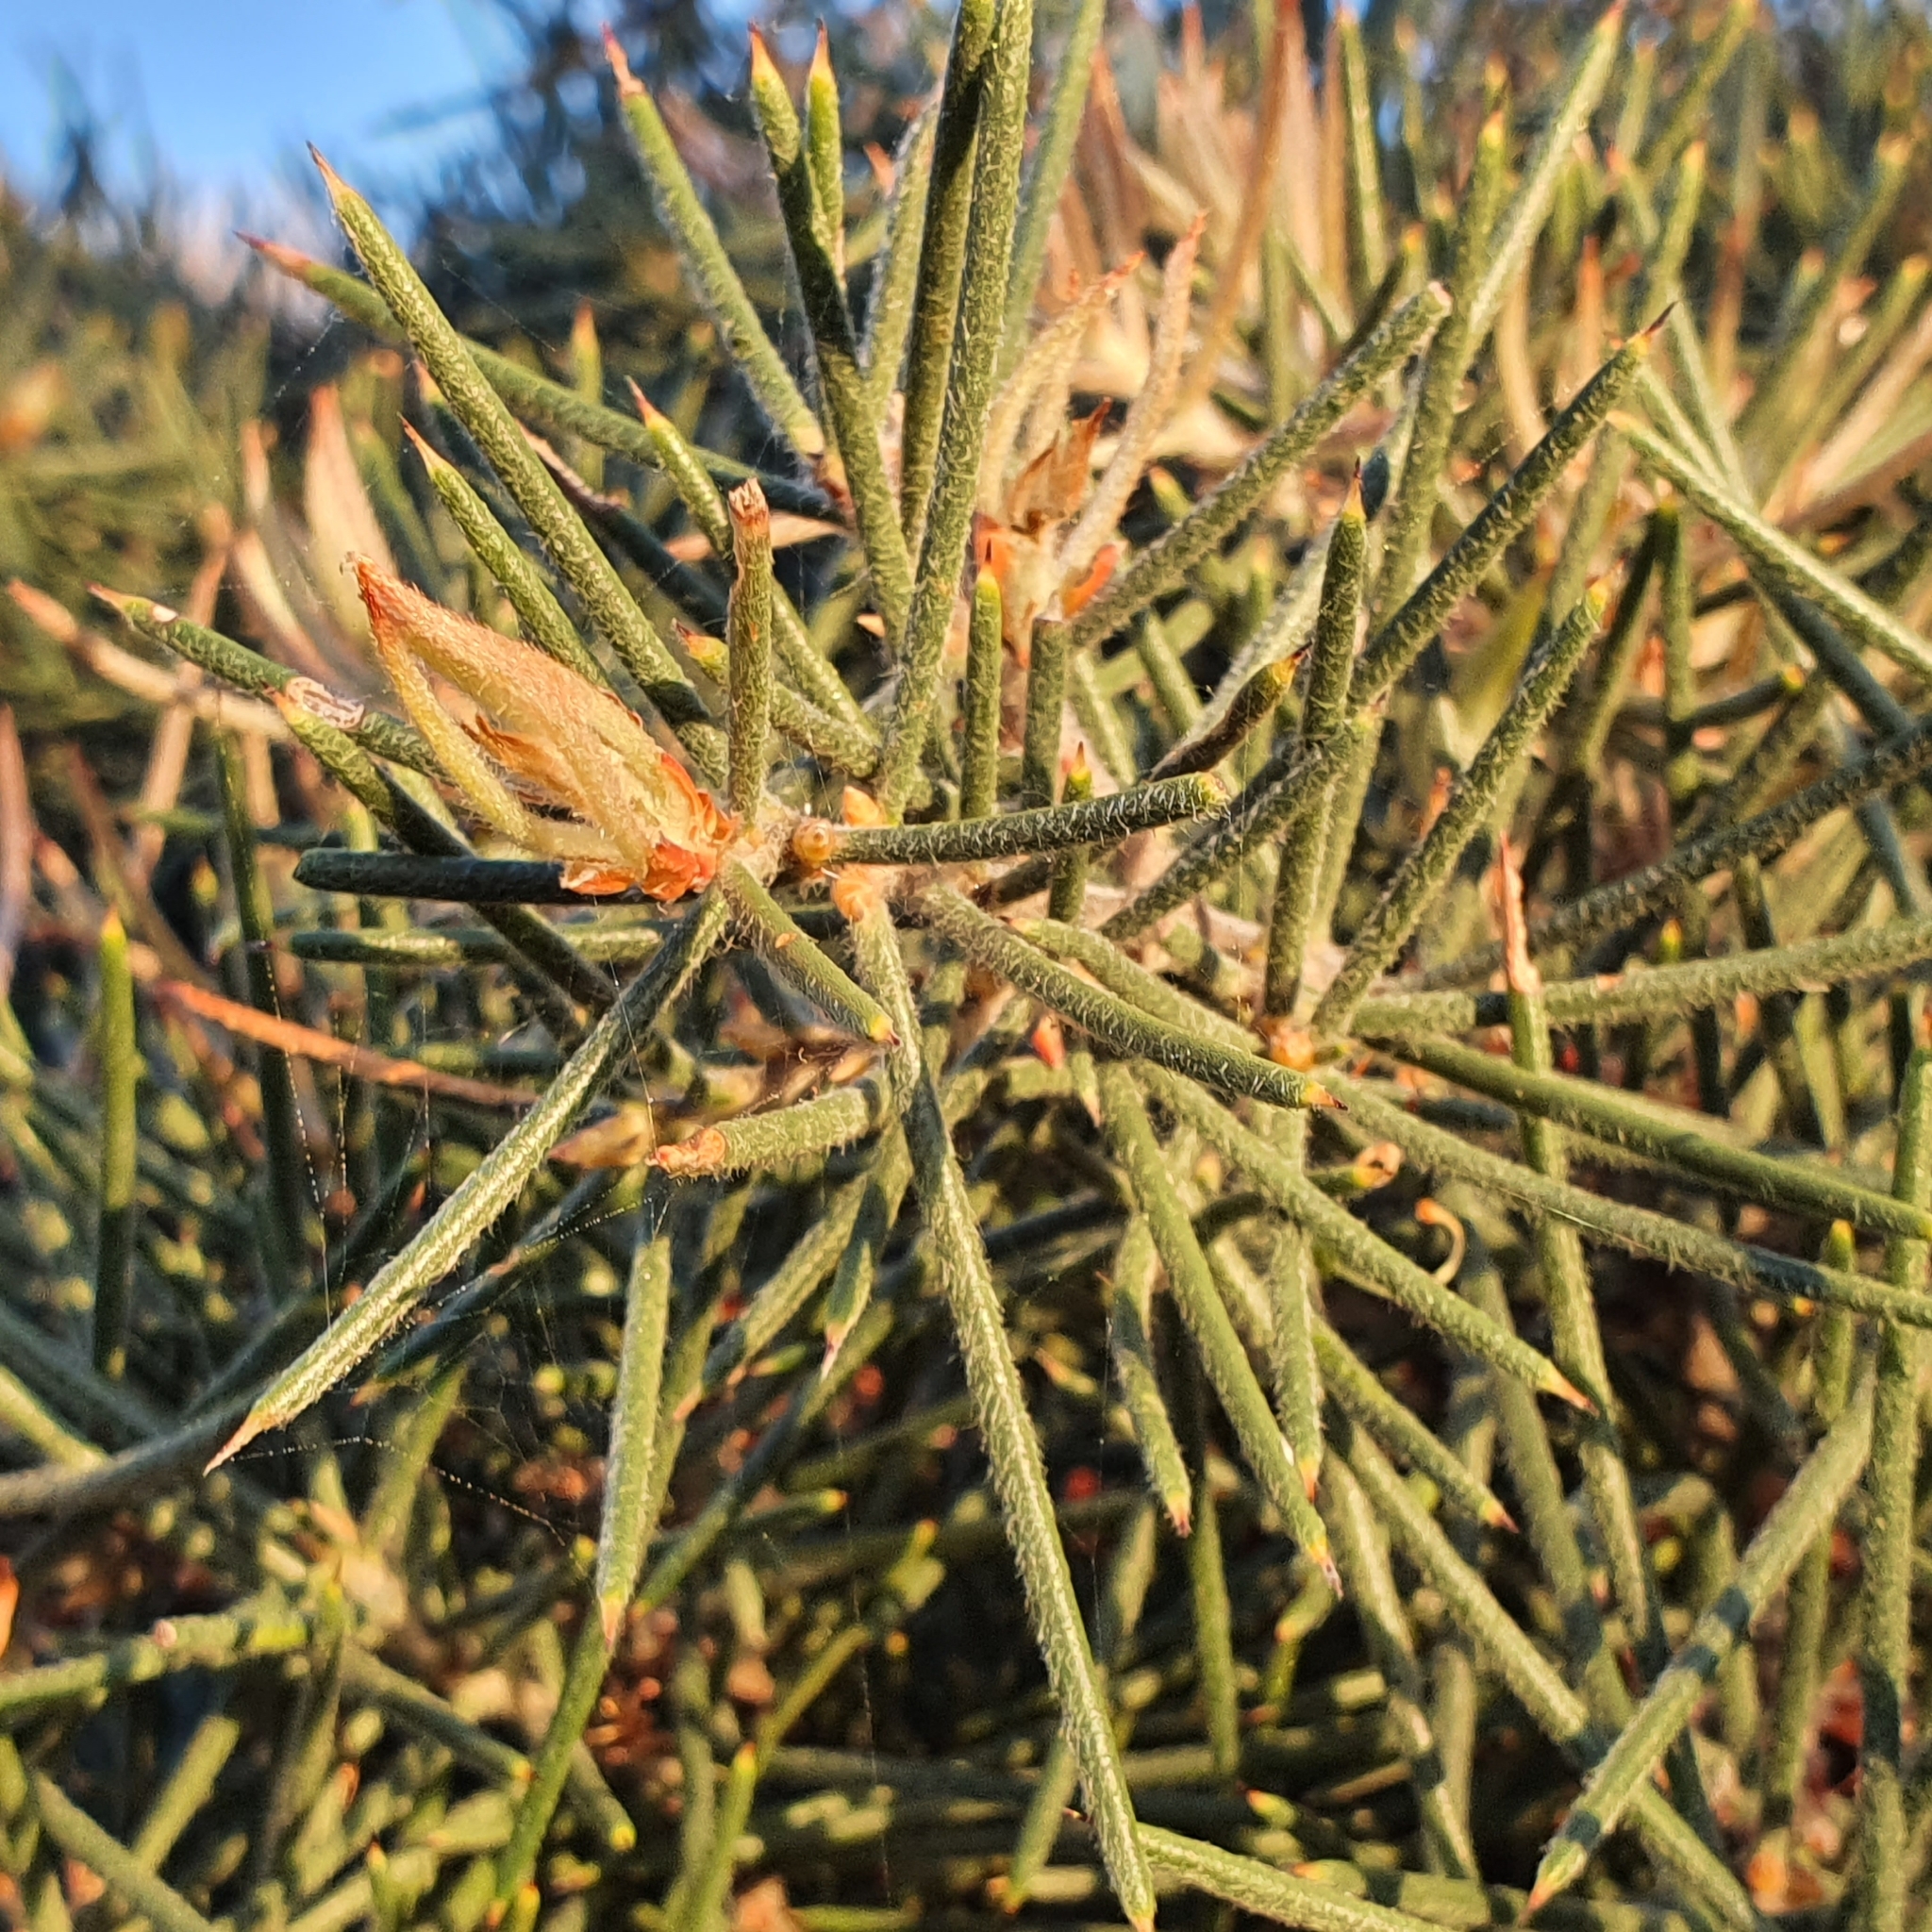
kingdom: Plantae
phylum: Tracheophyta
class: Magnoliopsida
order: Proteales
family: Proteaceae
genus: Hakea
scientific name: Hakea gibbosa
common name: Rock hakea
